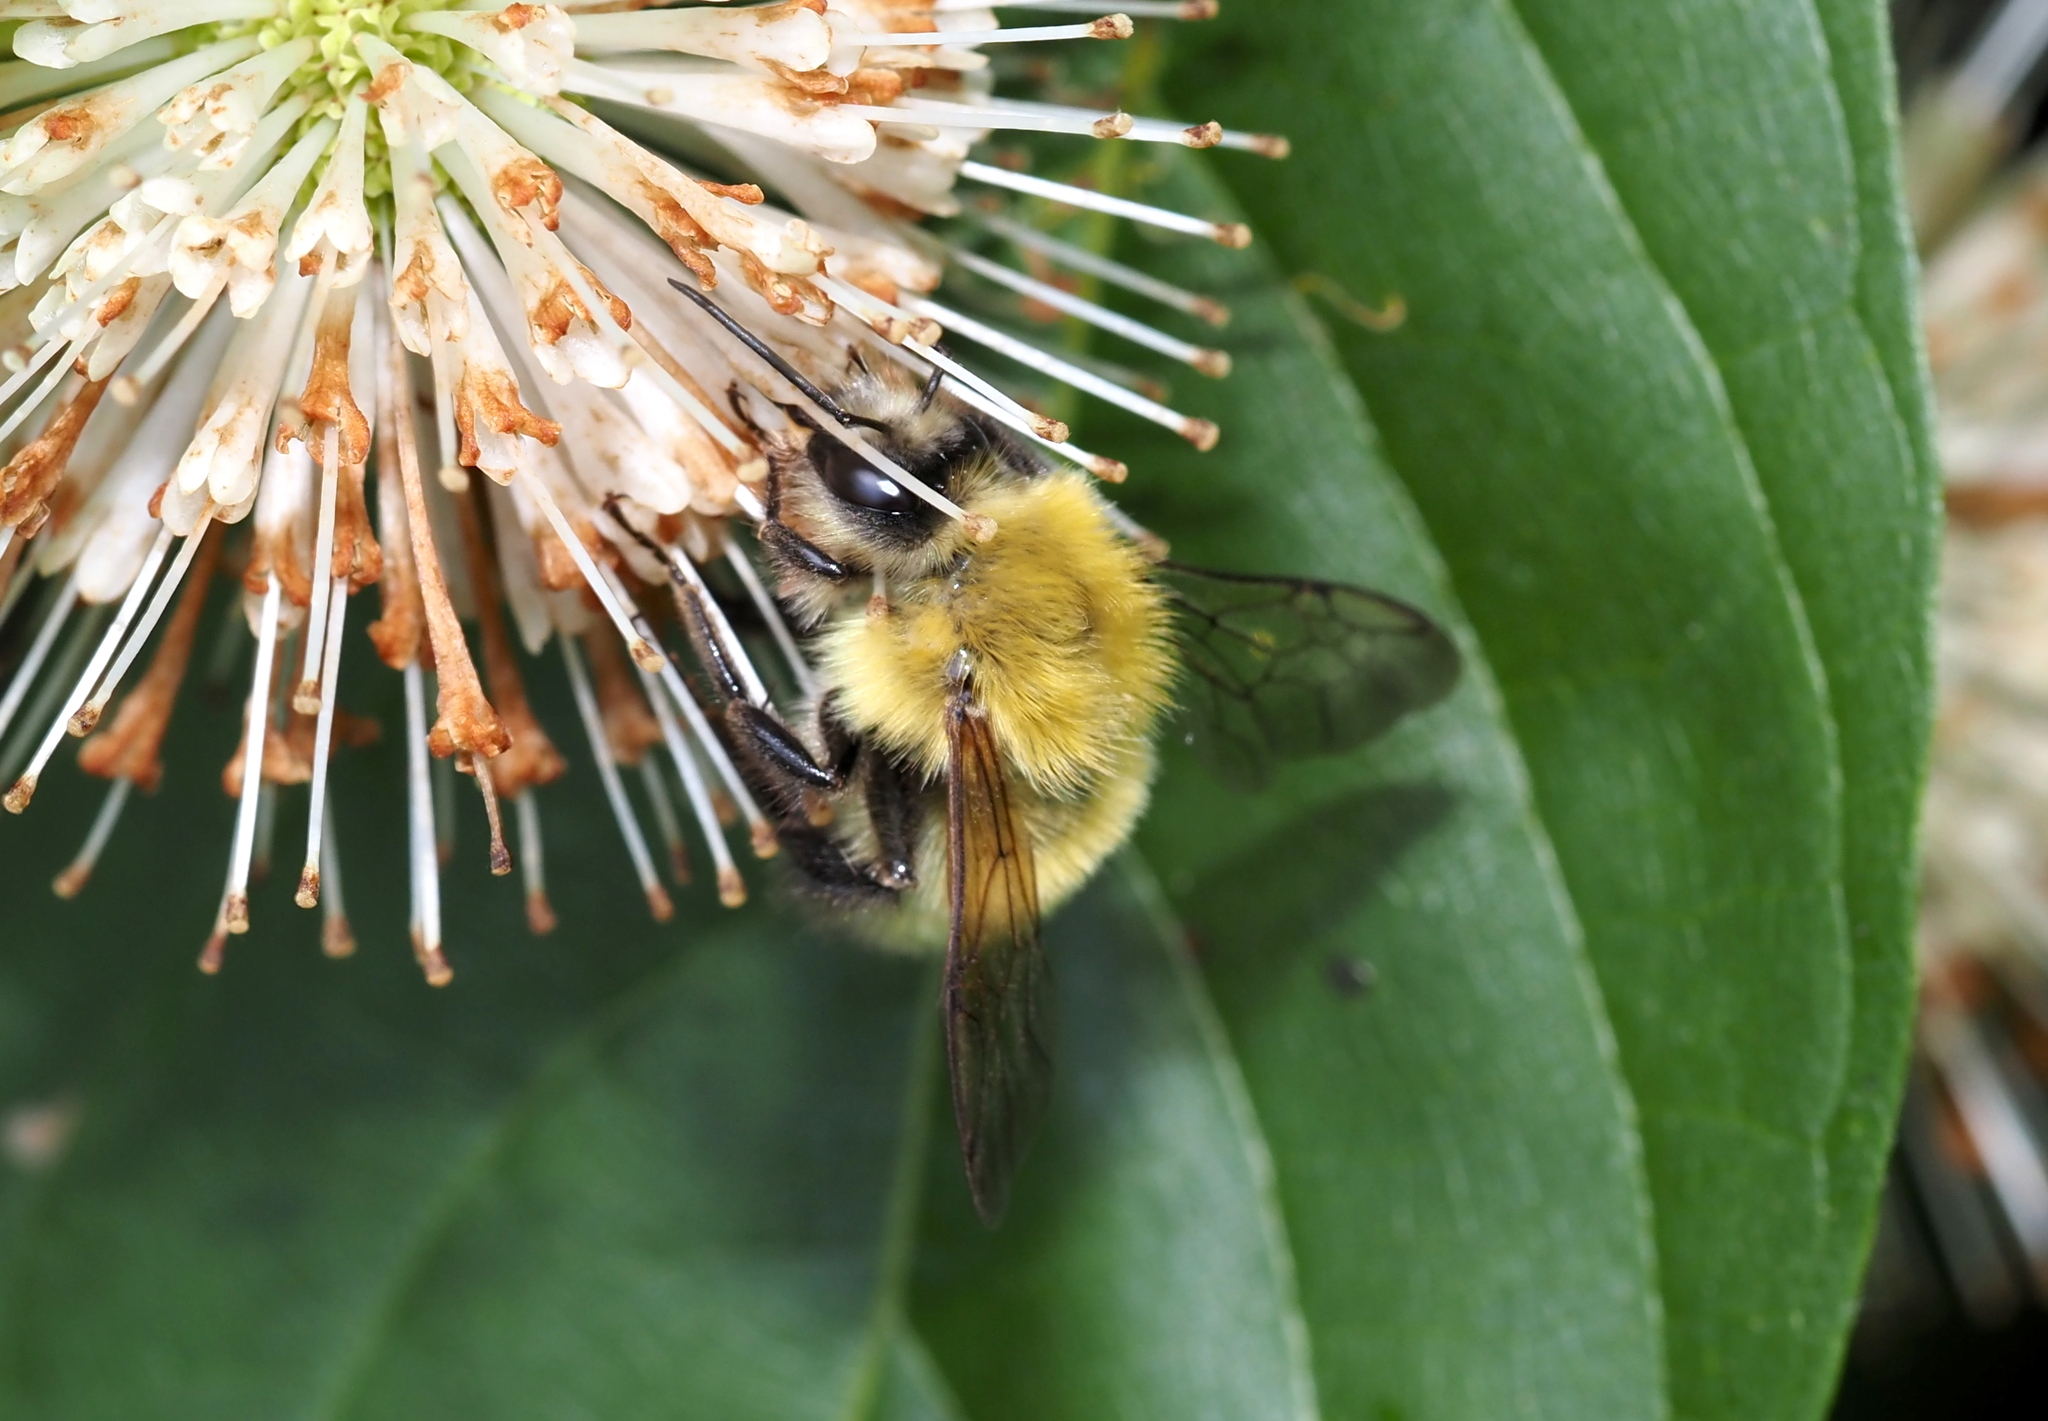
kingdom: Animalia
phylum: Arthropoda
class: Insecta
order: Hymenoptera
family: Apidae
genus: Bombus
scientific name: Bombus perplexus
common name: Confusing bumble bee
